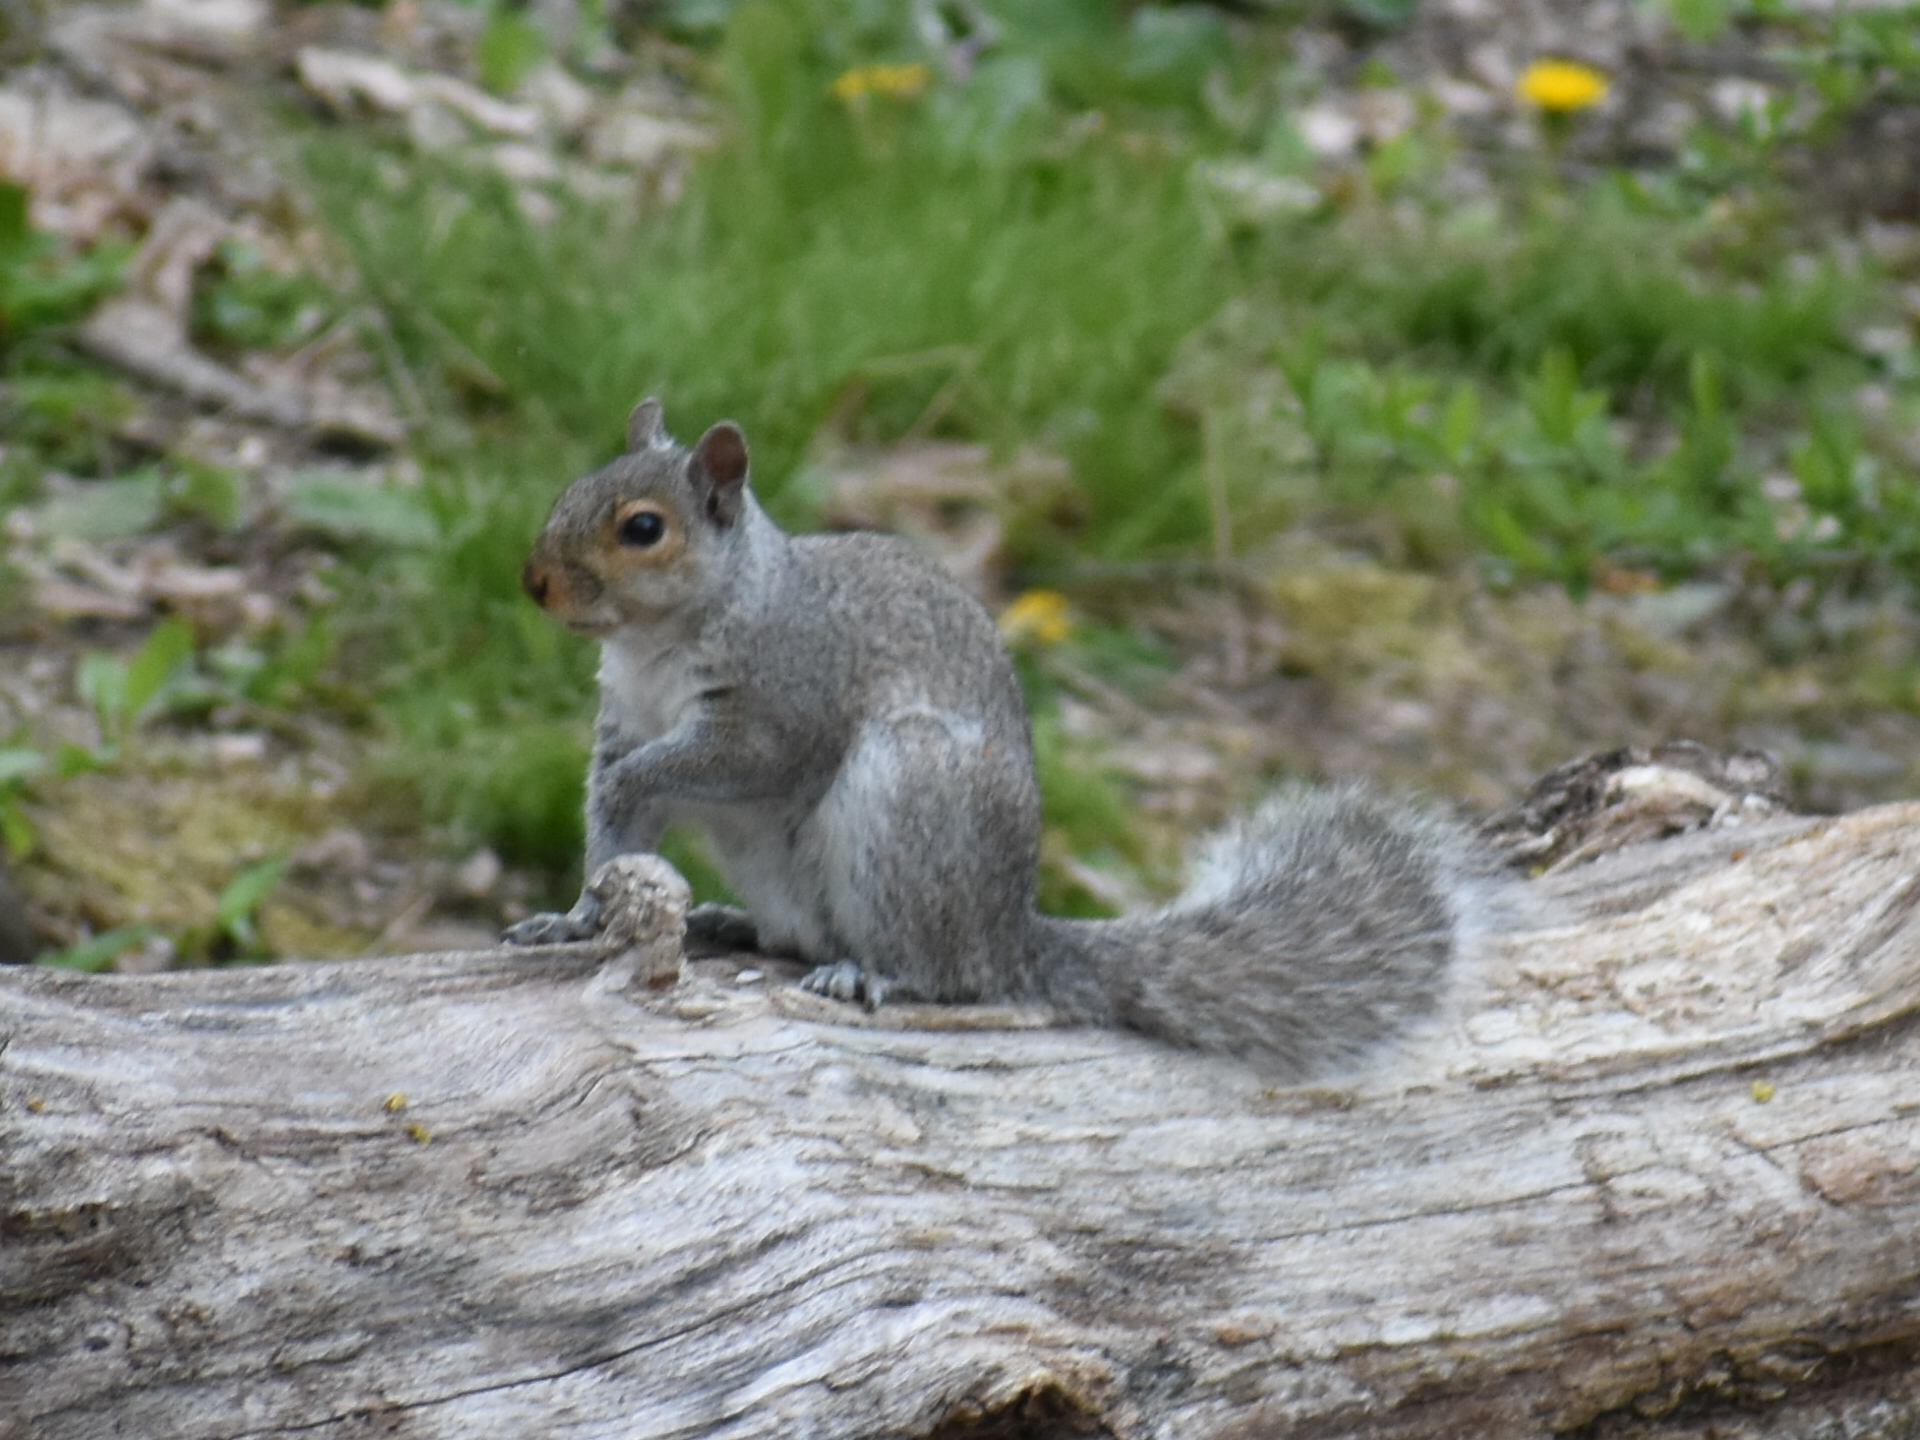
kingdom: Animalia
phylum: Chordata
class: Mammalia
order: Rodentia
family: Sciuridae
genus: Sciurus
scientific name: Sciurus carolinensis
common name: Eastern gray squirrel
